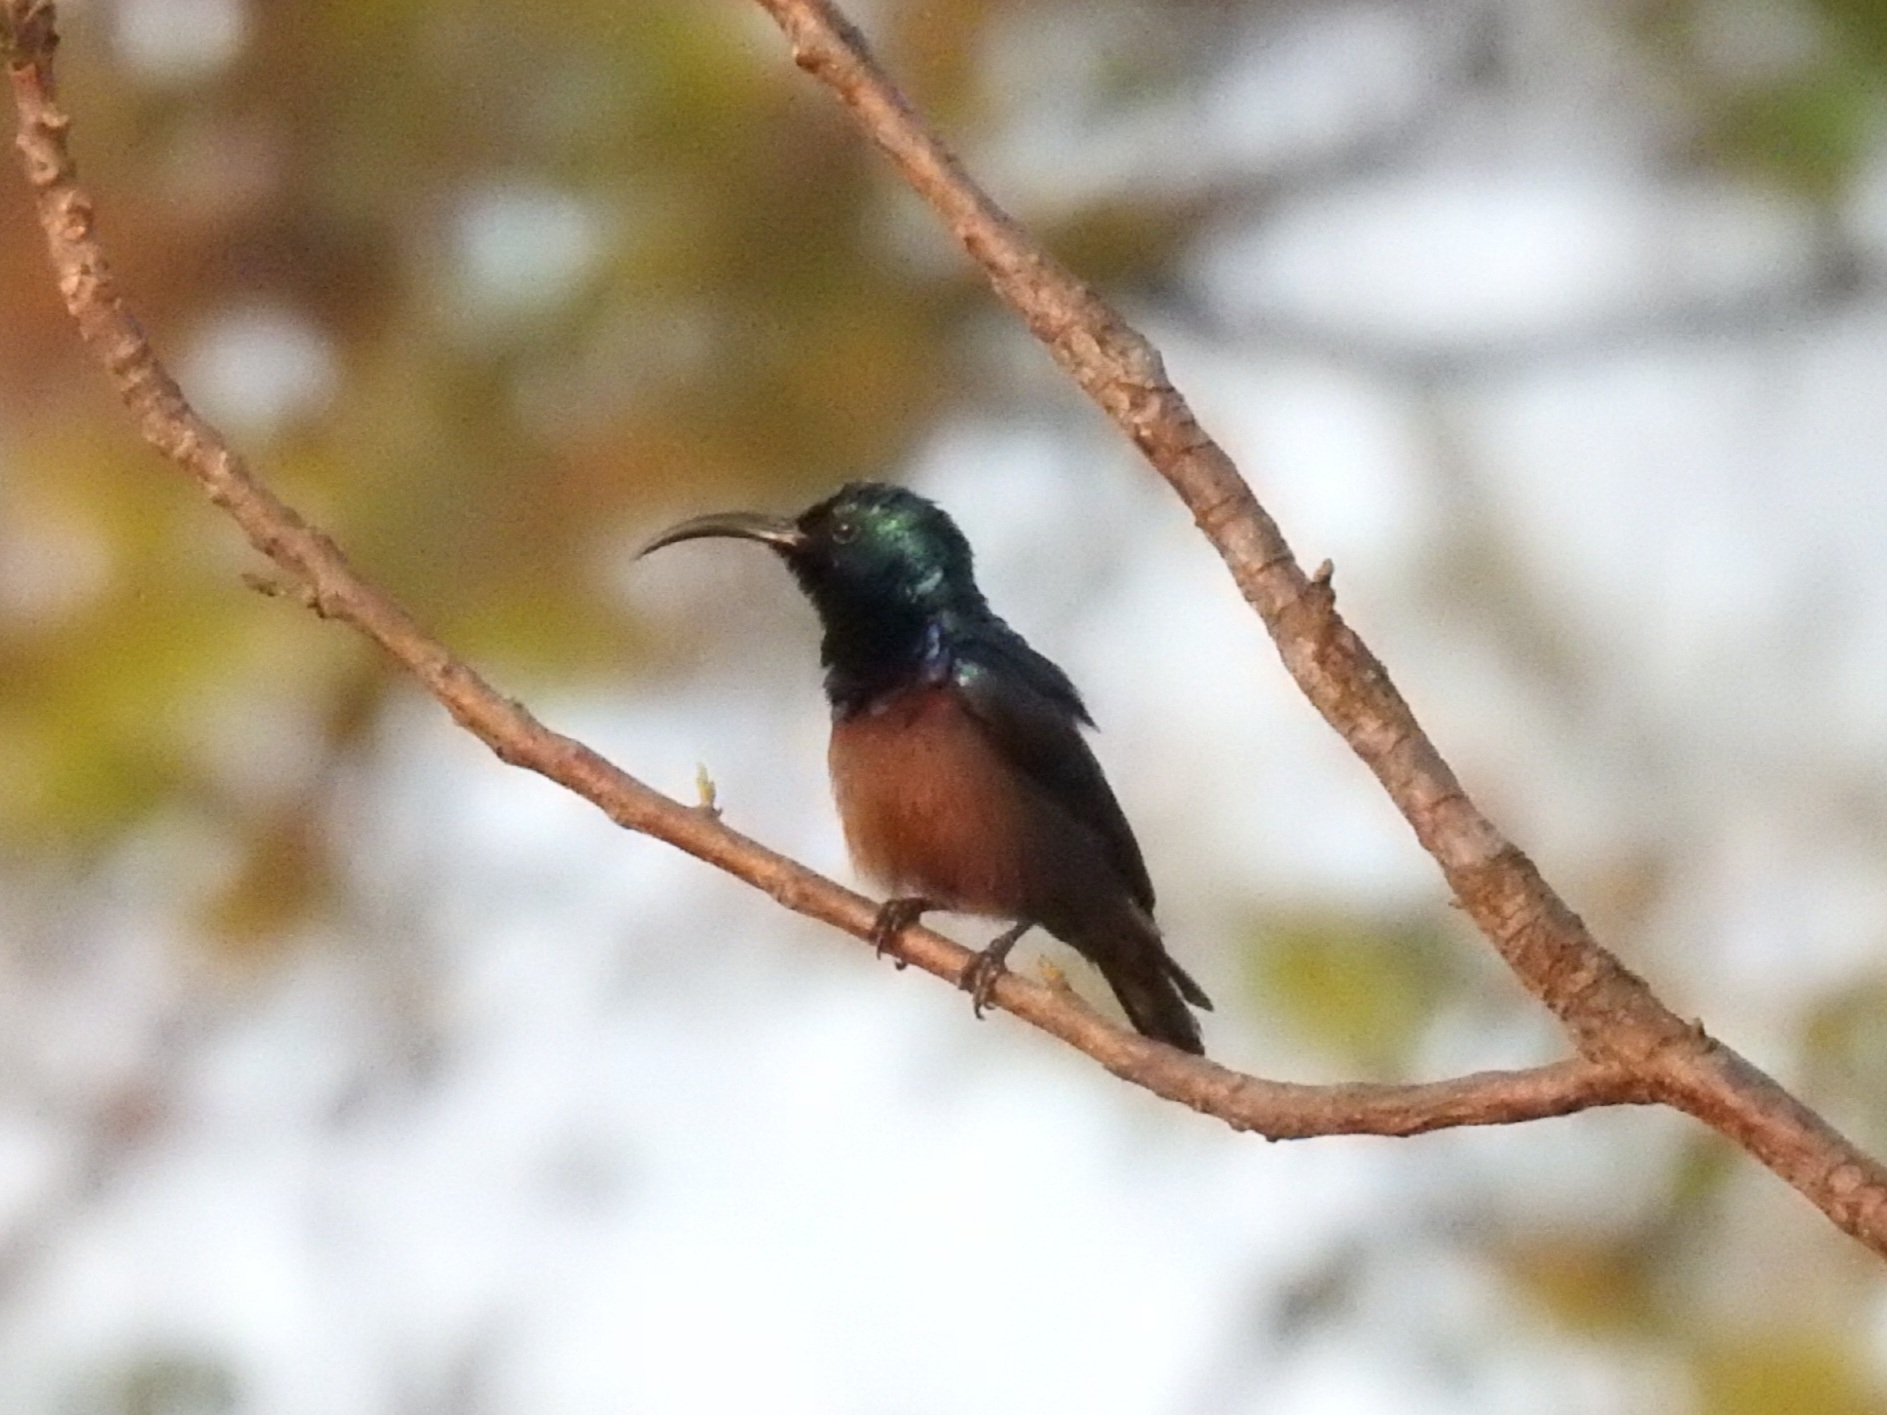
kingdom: Animalia
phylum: Chordata
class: Aves
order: Passeriformes
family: Nectariniidae
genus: Cinnyris
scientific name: Cinnyris lotenius
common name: Loten's sunbird
